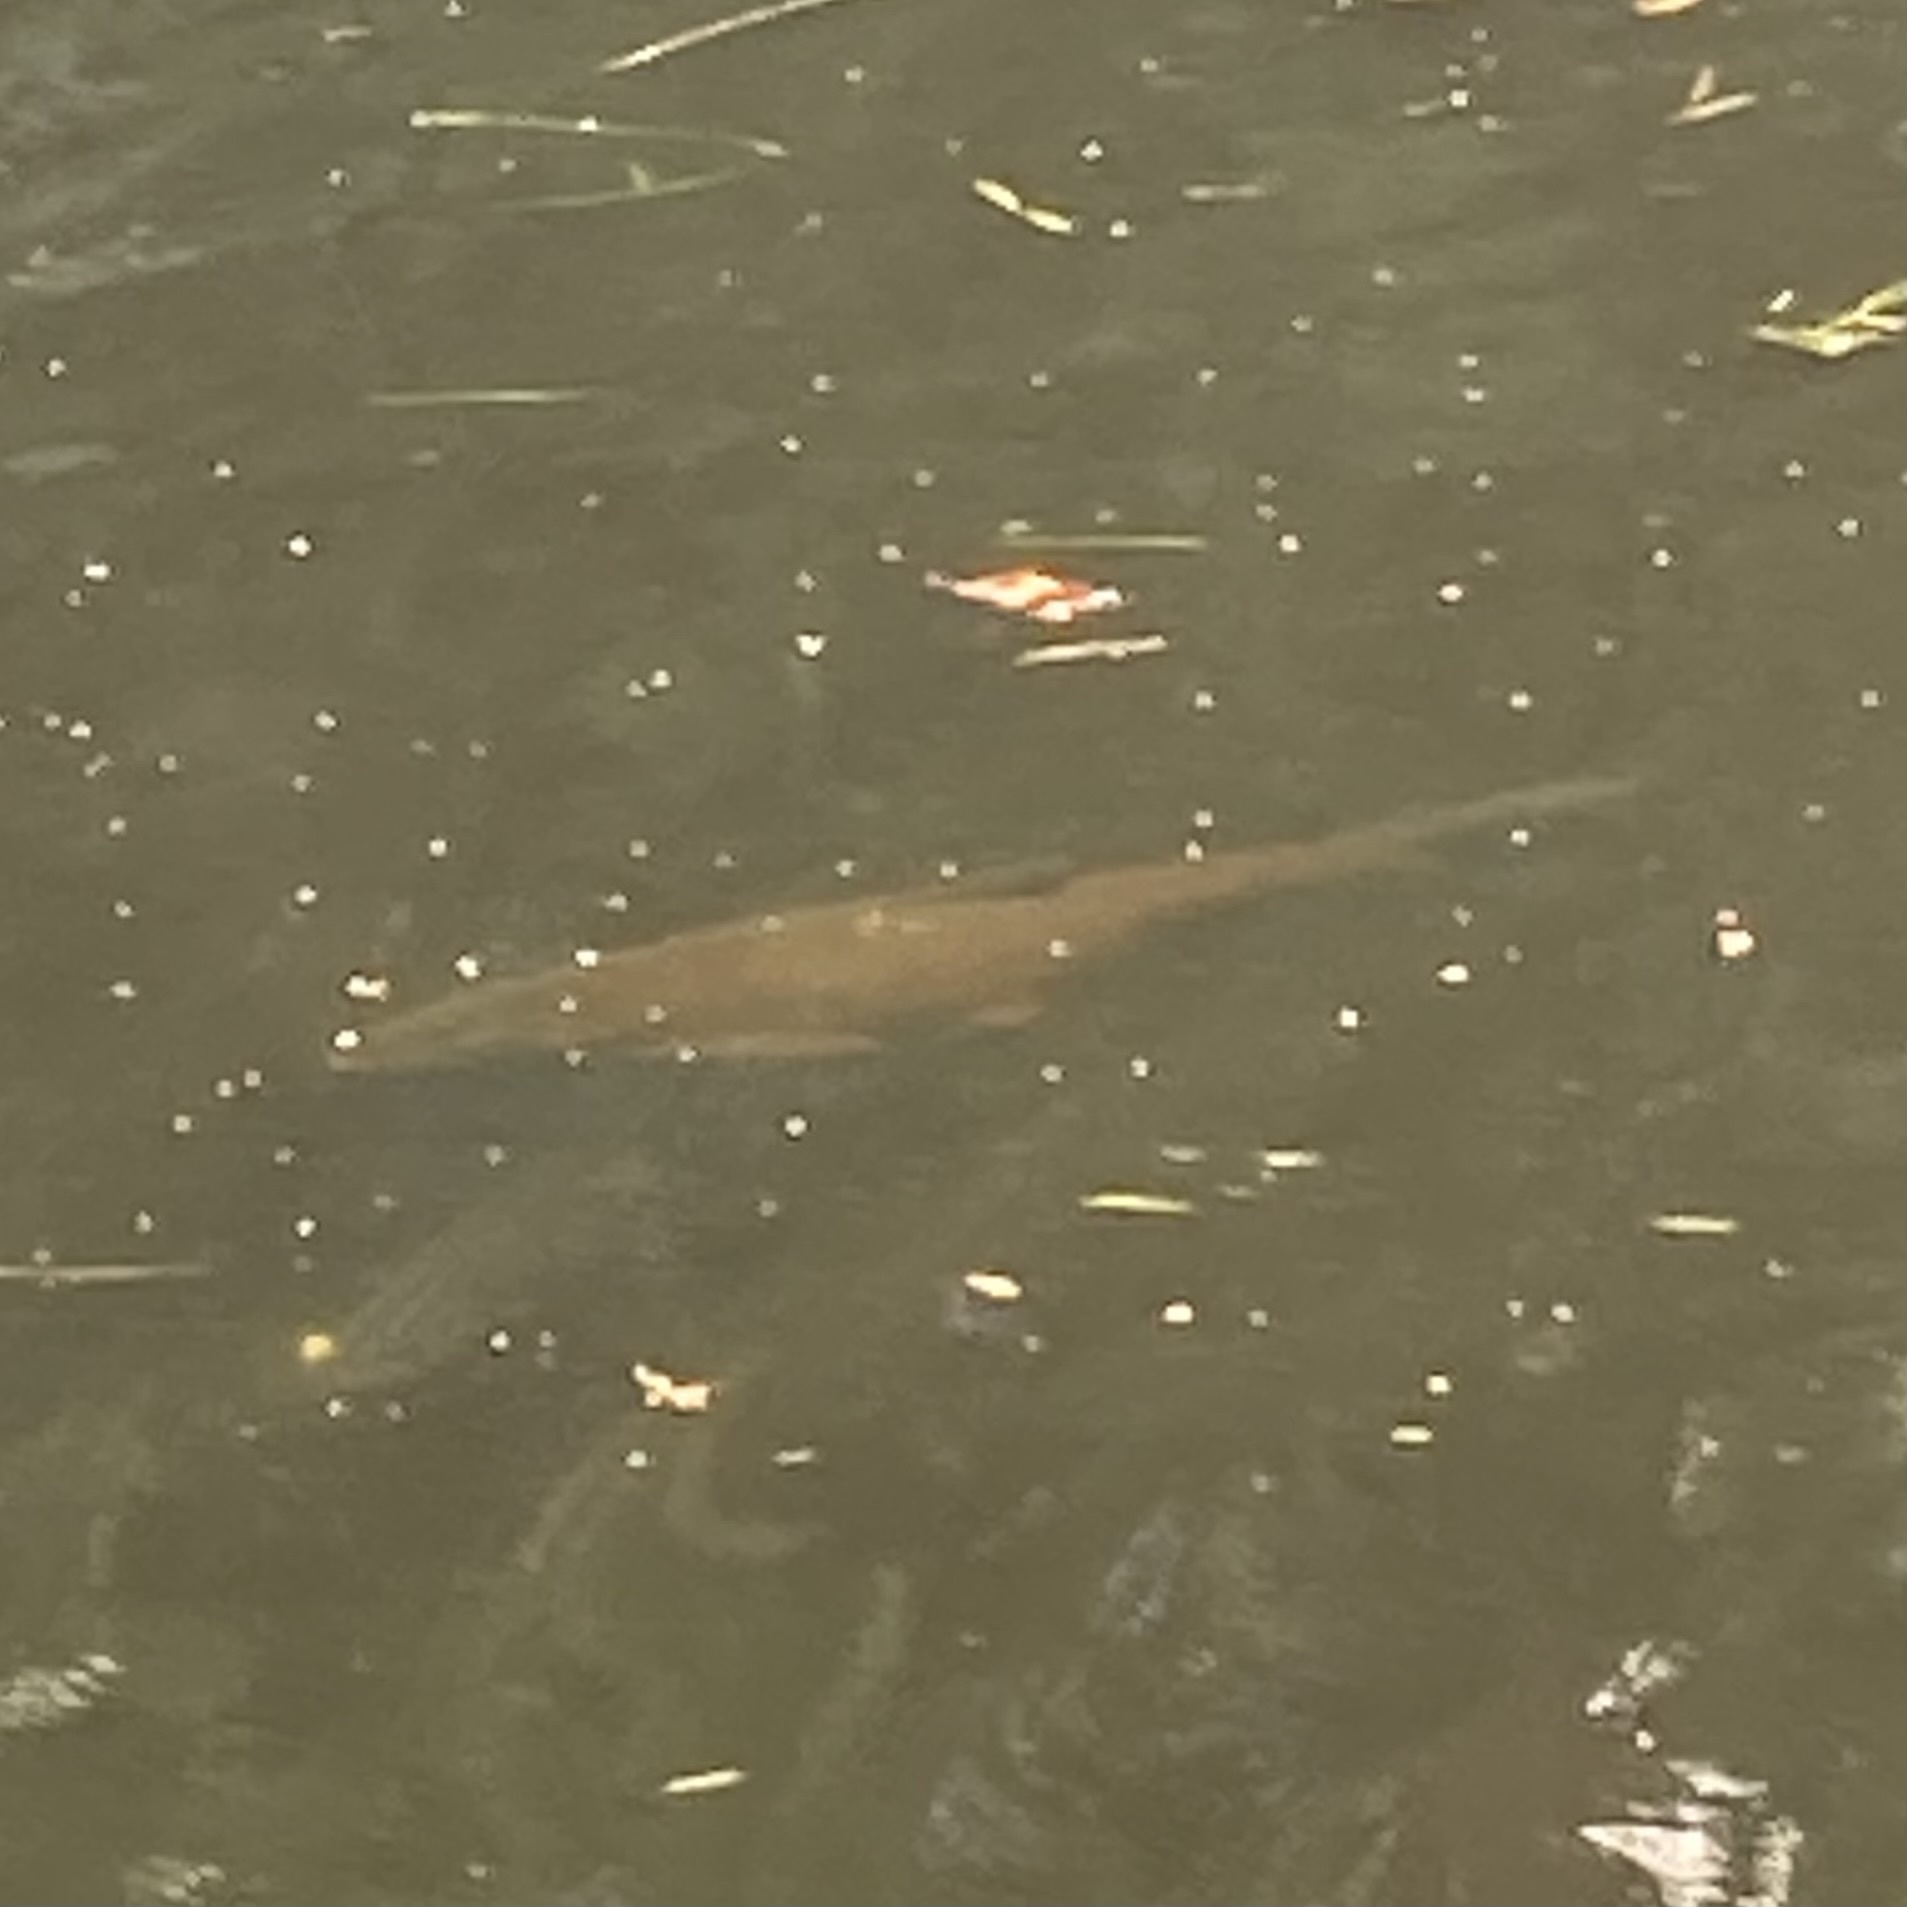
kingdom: Animalia
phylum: Chordata
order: Cypriniformes
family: Cyprinidae
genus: Ctenopharyngodon
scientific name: Ctenopharyngodon idella
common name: Grass carp
